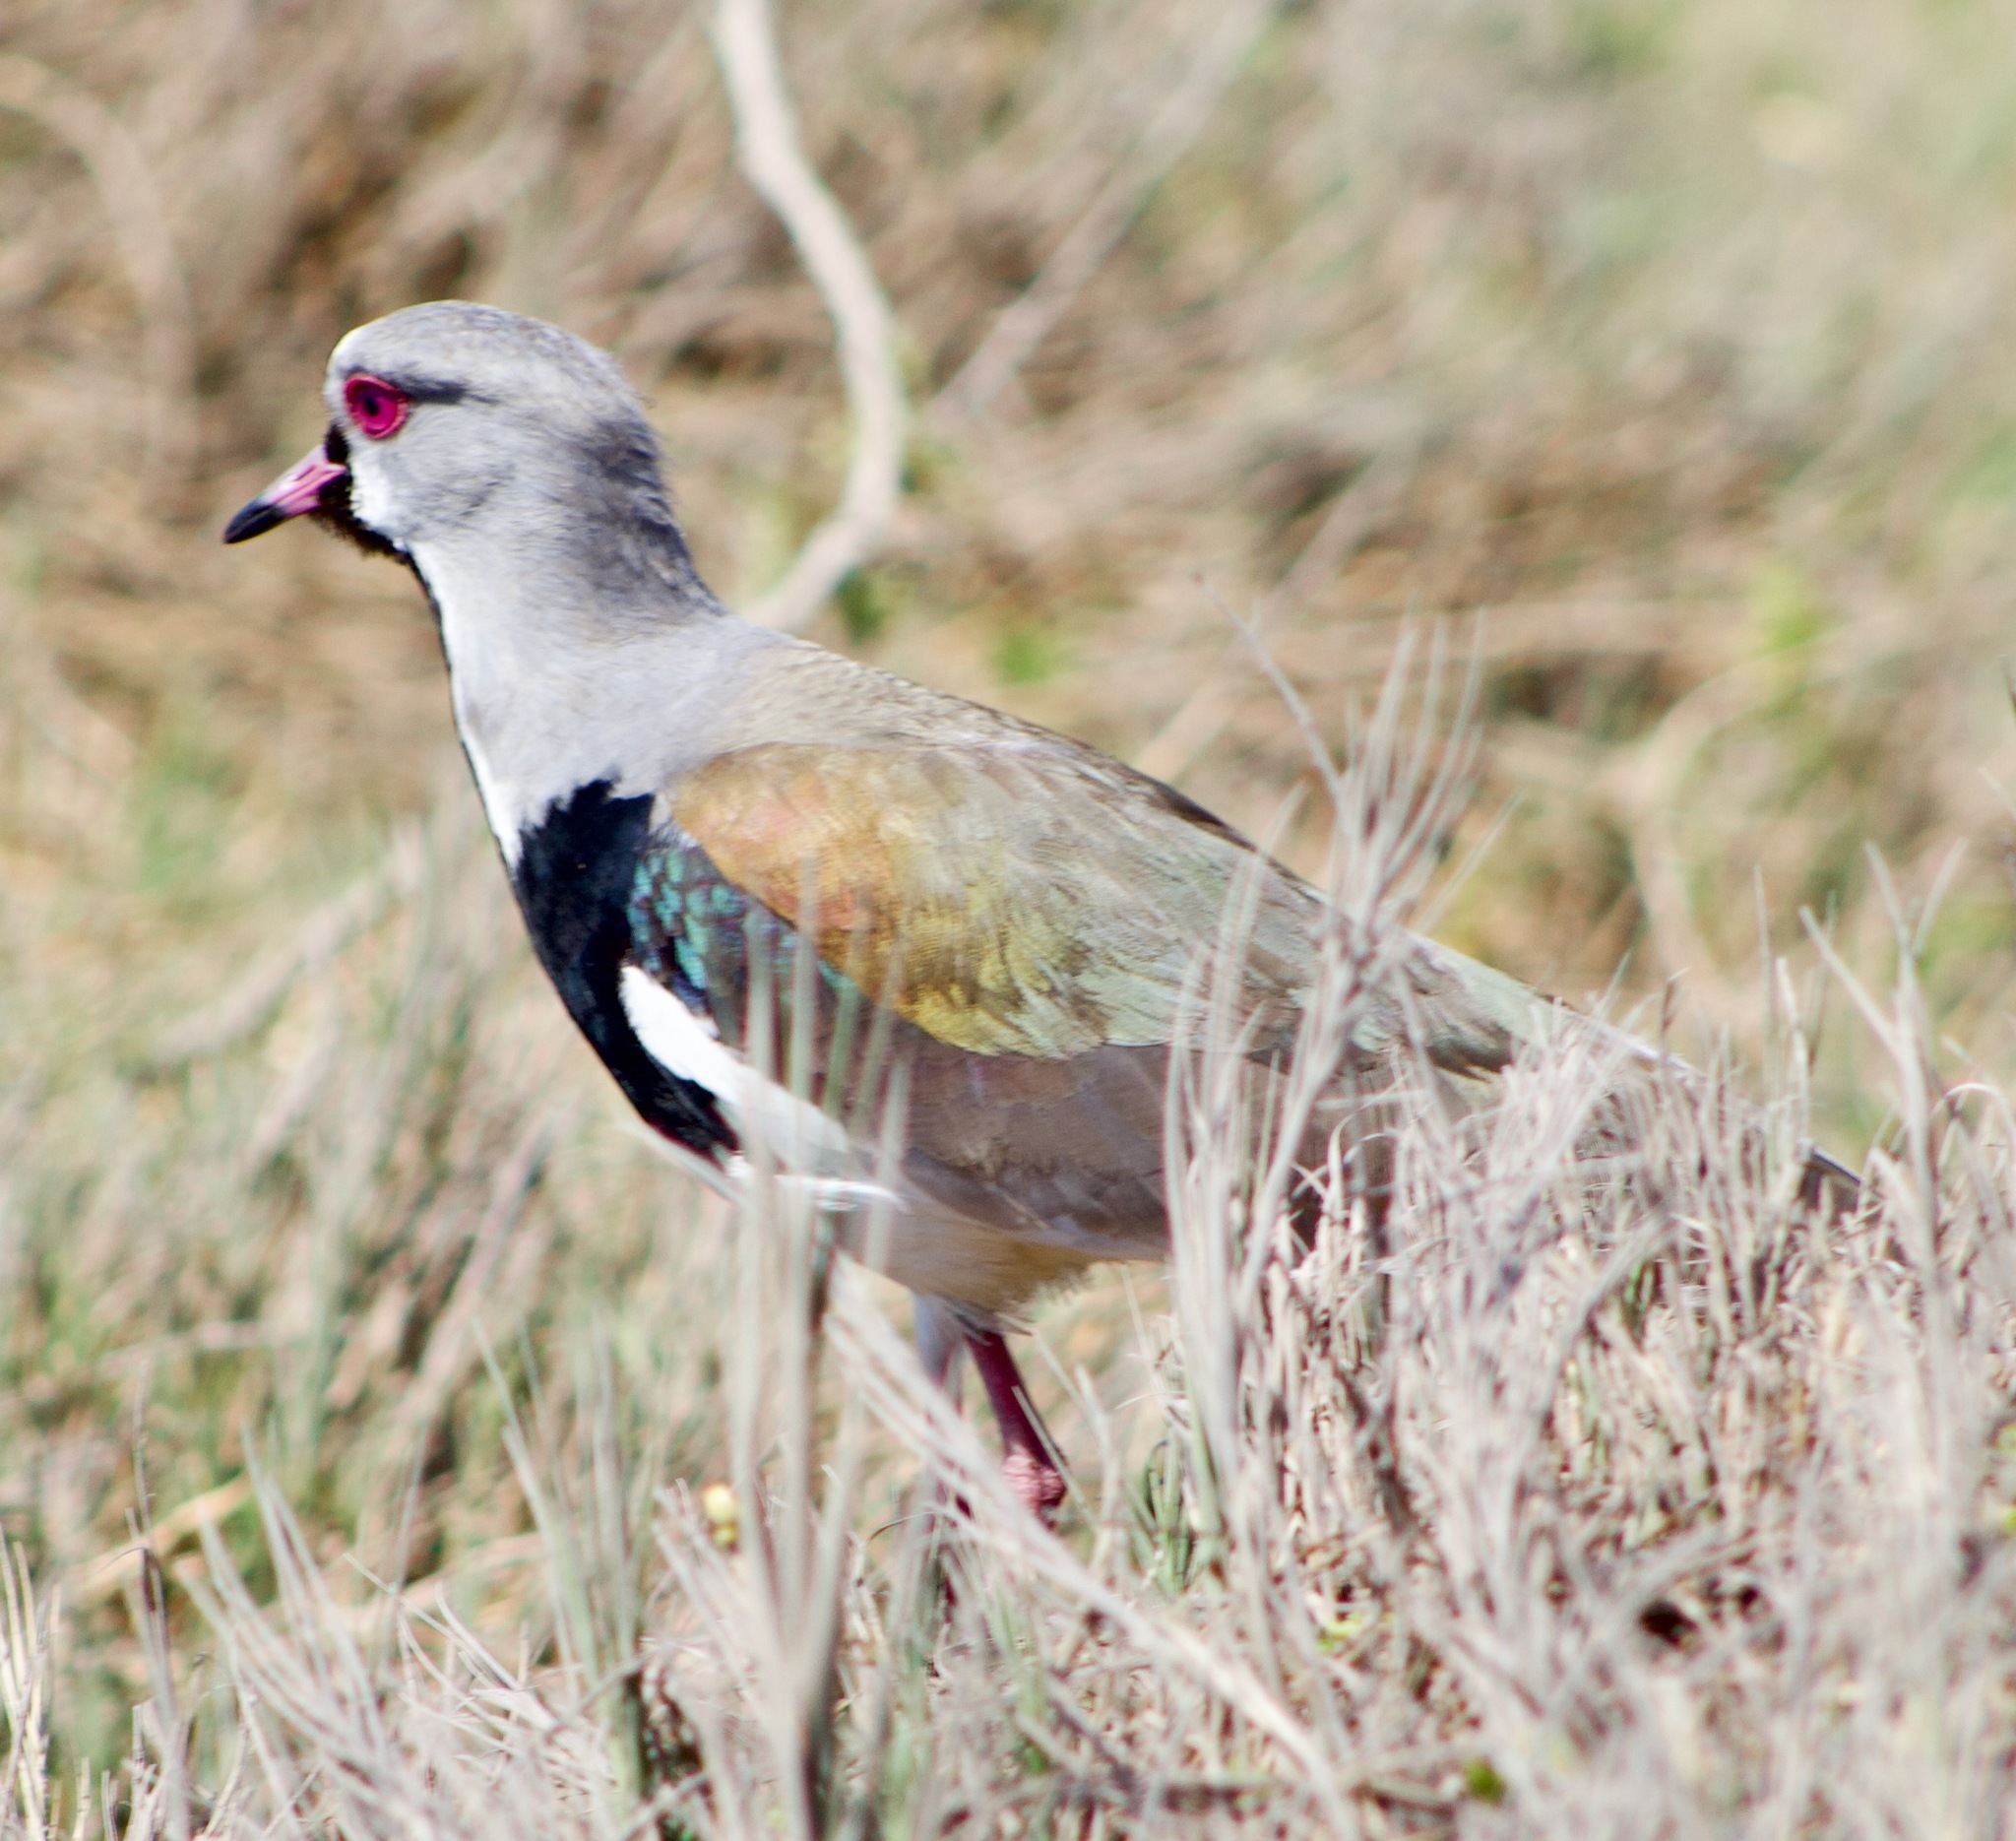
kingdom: Animalia
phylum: Chordata
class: Aves
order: Charadriiformes
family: Charadriidae
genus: Vanellus
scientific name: Vanellus chilensis
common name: Southern lapwing
